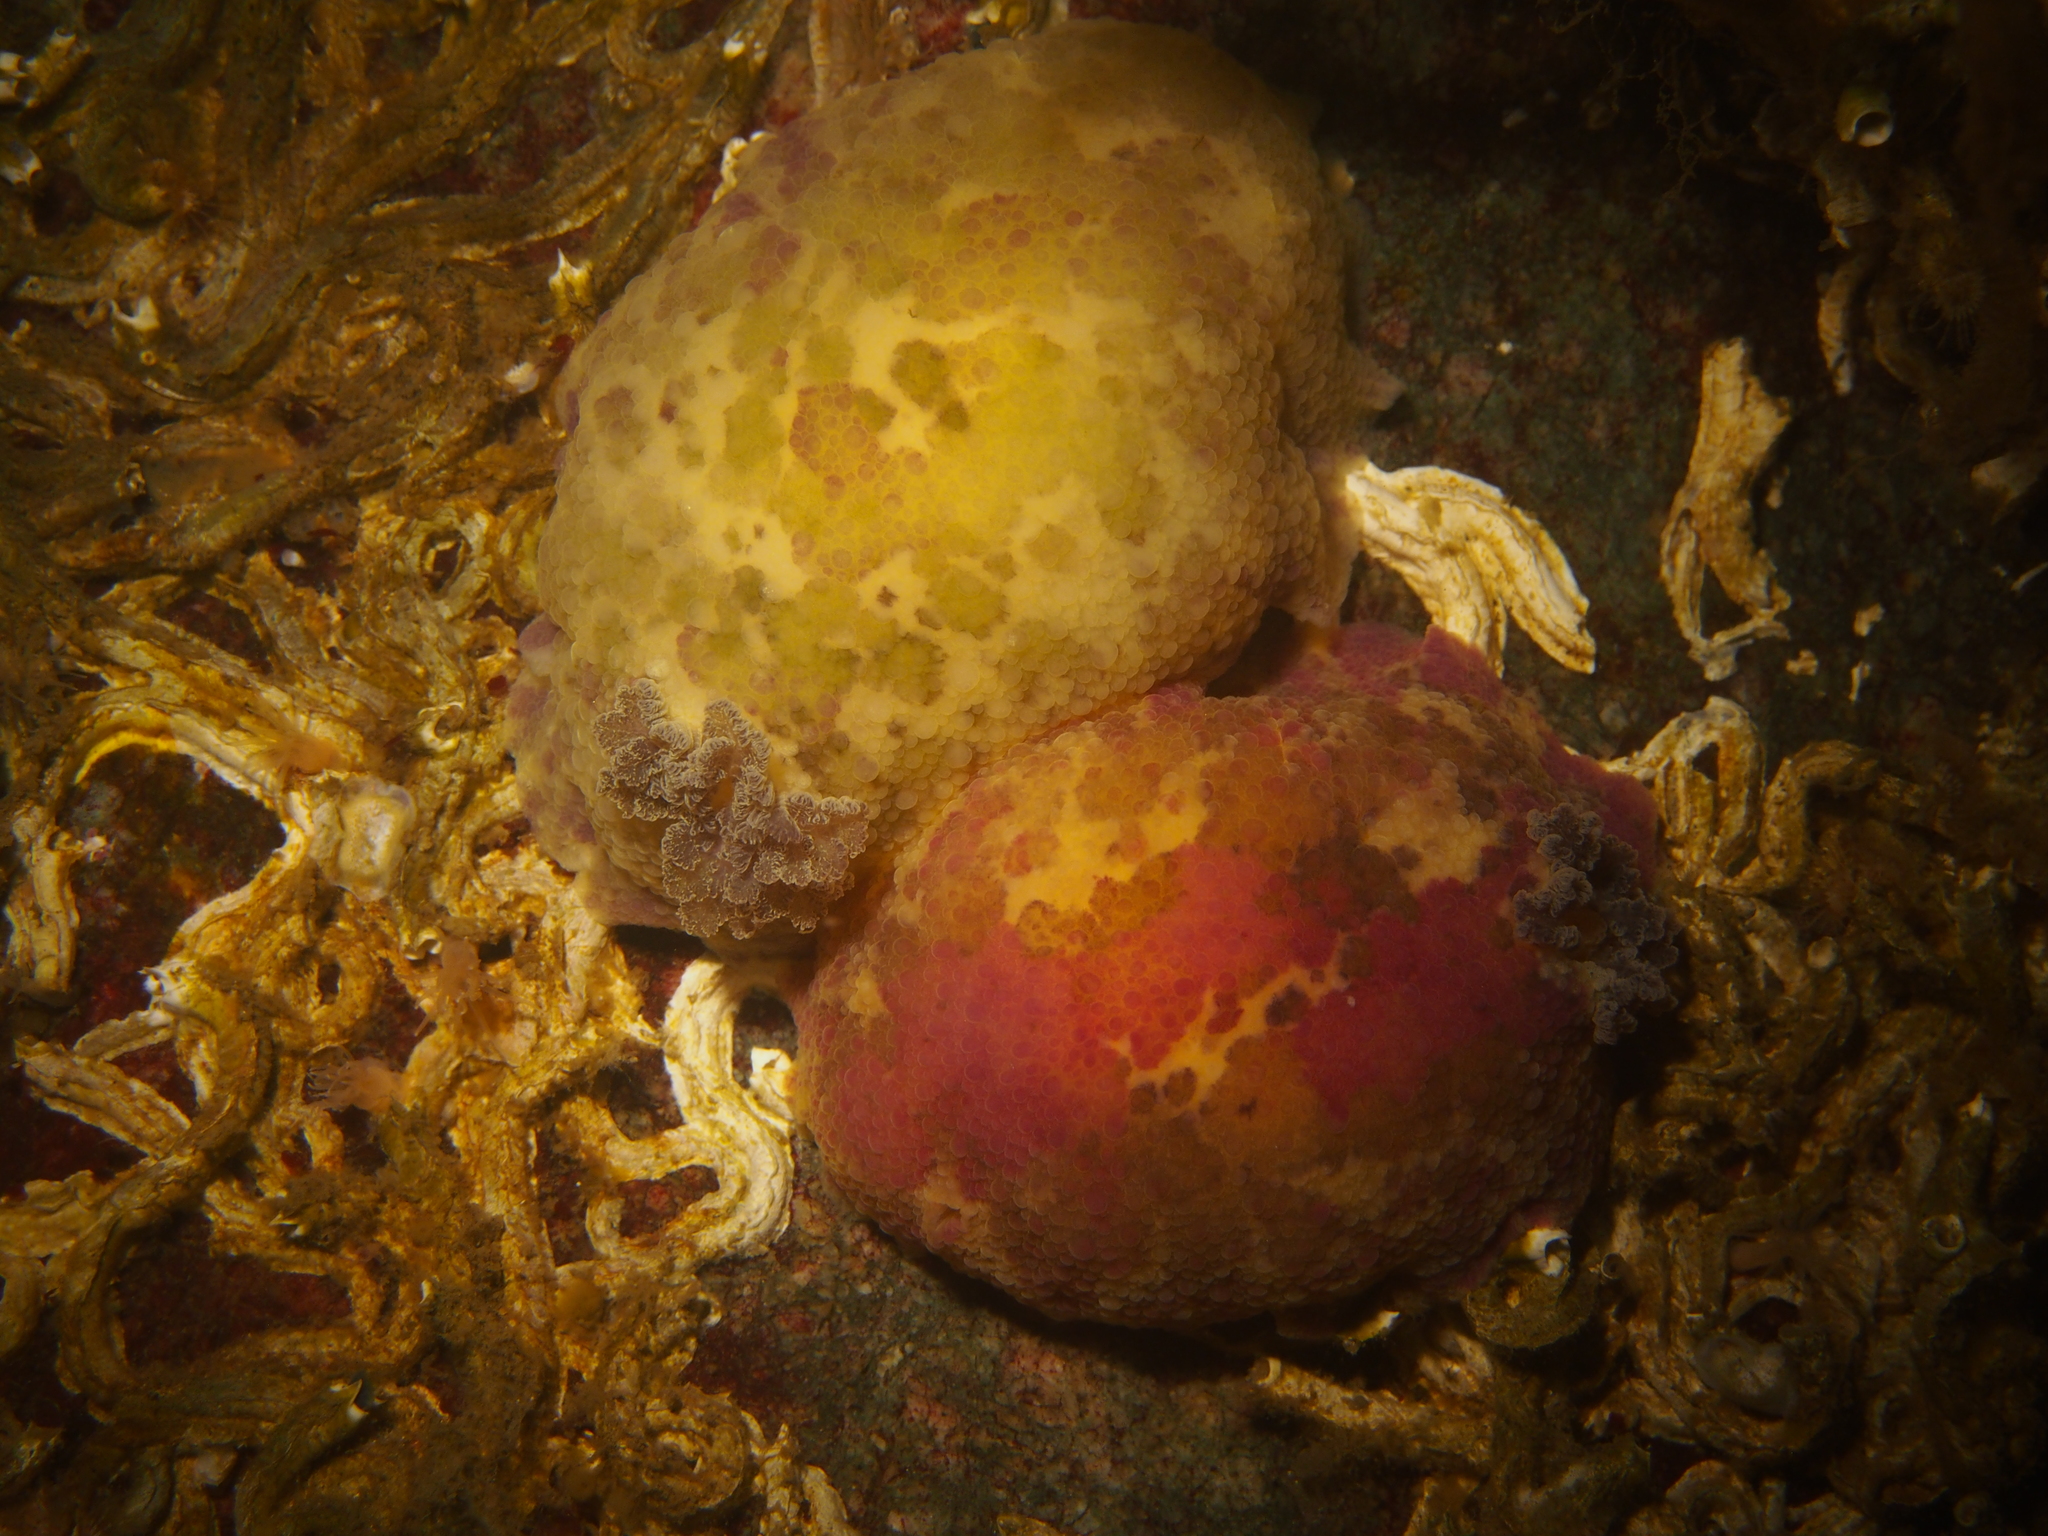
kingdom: Animalia
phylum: Mollusca
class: Gastropoda
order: Nudibranchia
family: Dorididae
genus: Doris
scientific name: Doris pseudoargus
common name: Sea lemon
